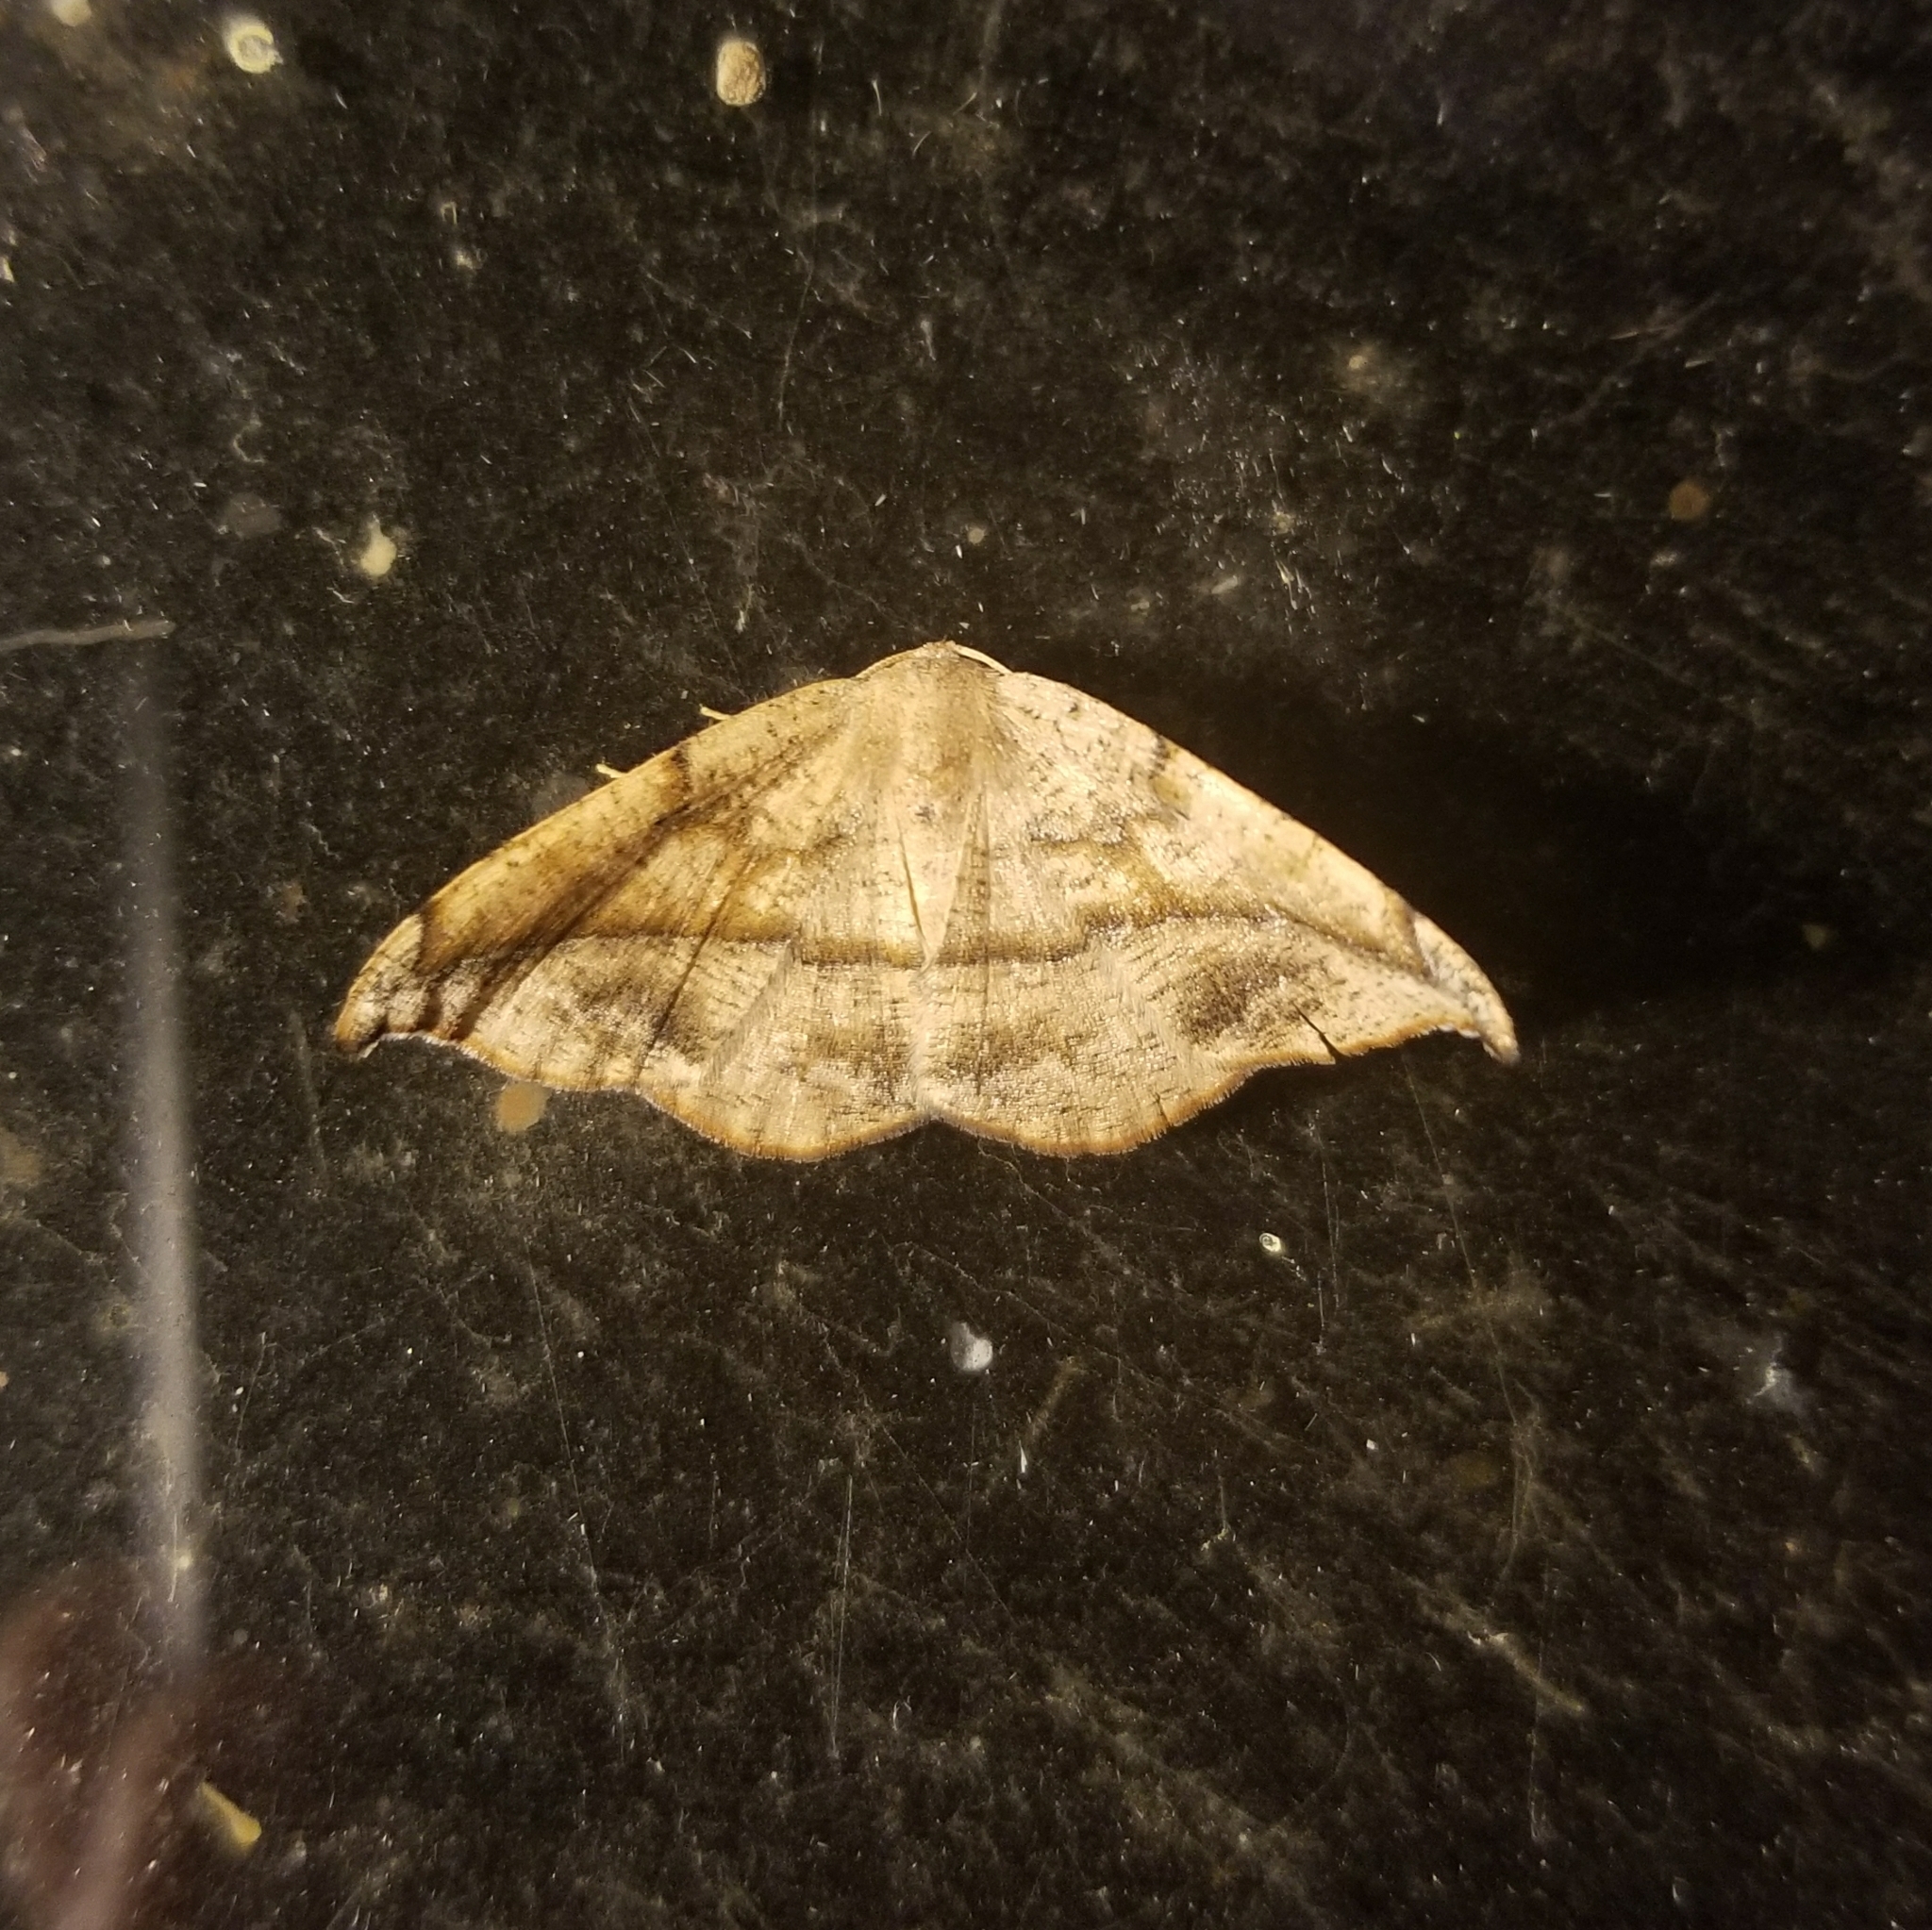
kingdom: Animalia
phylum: Arthropoda
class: Insecta
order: Lepidoptera
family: Geometridae
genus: Patalene
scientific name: Patalene olyzonaria
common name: Juniper geometer moth
